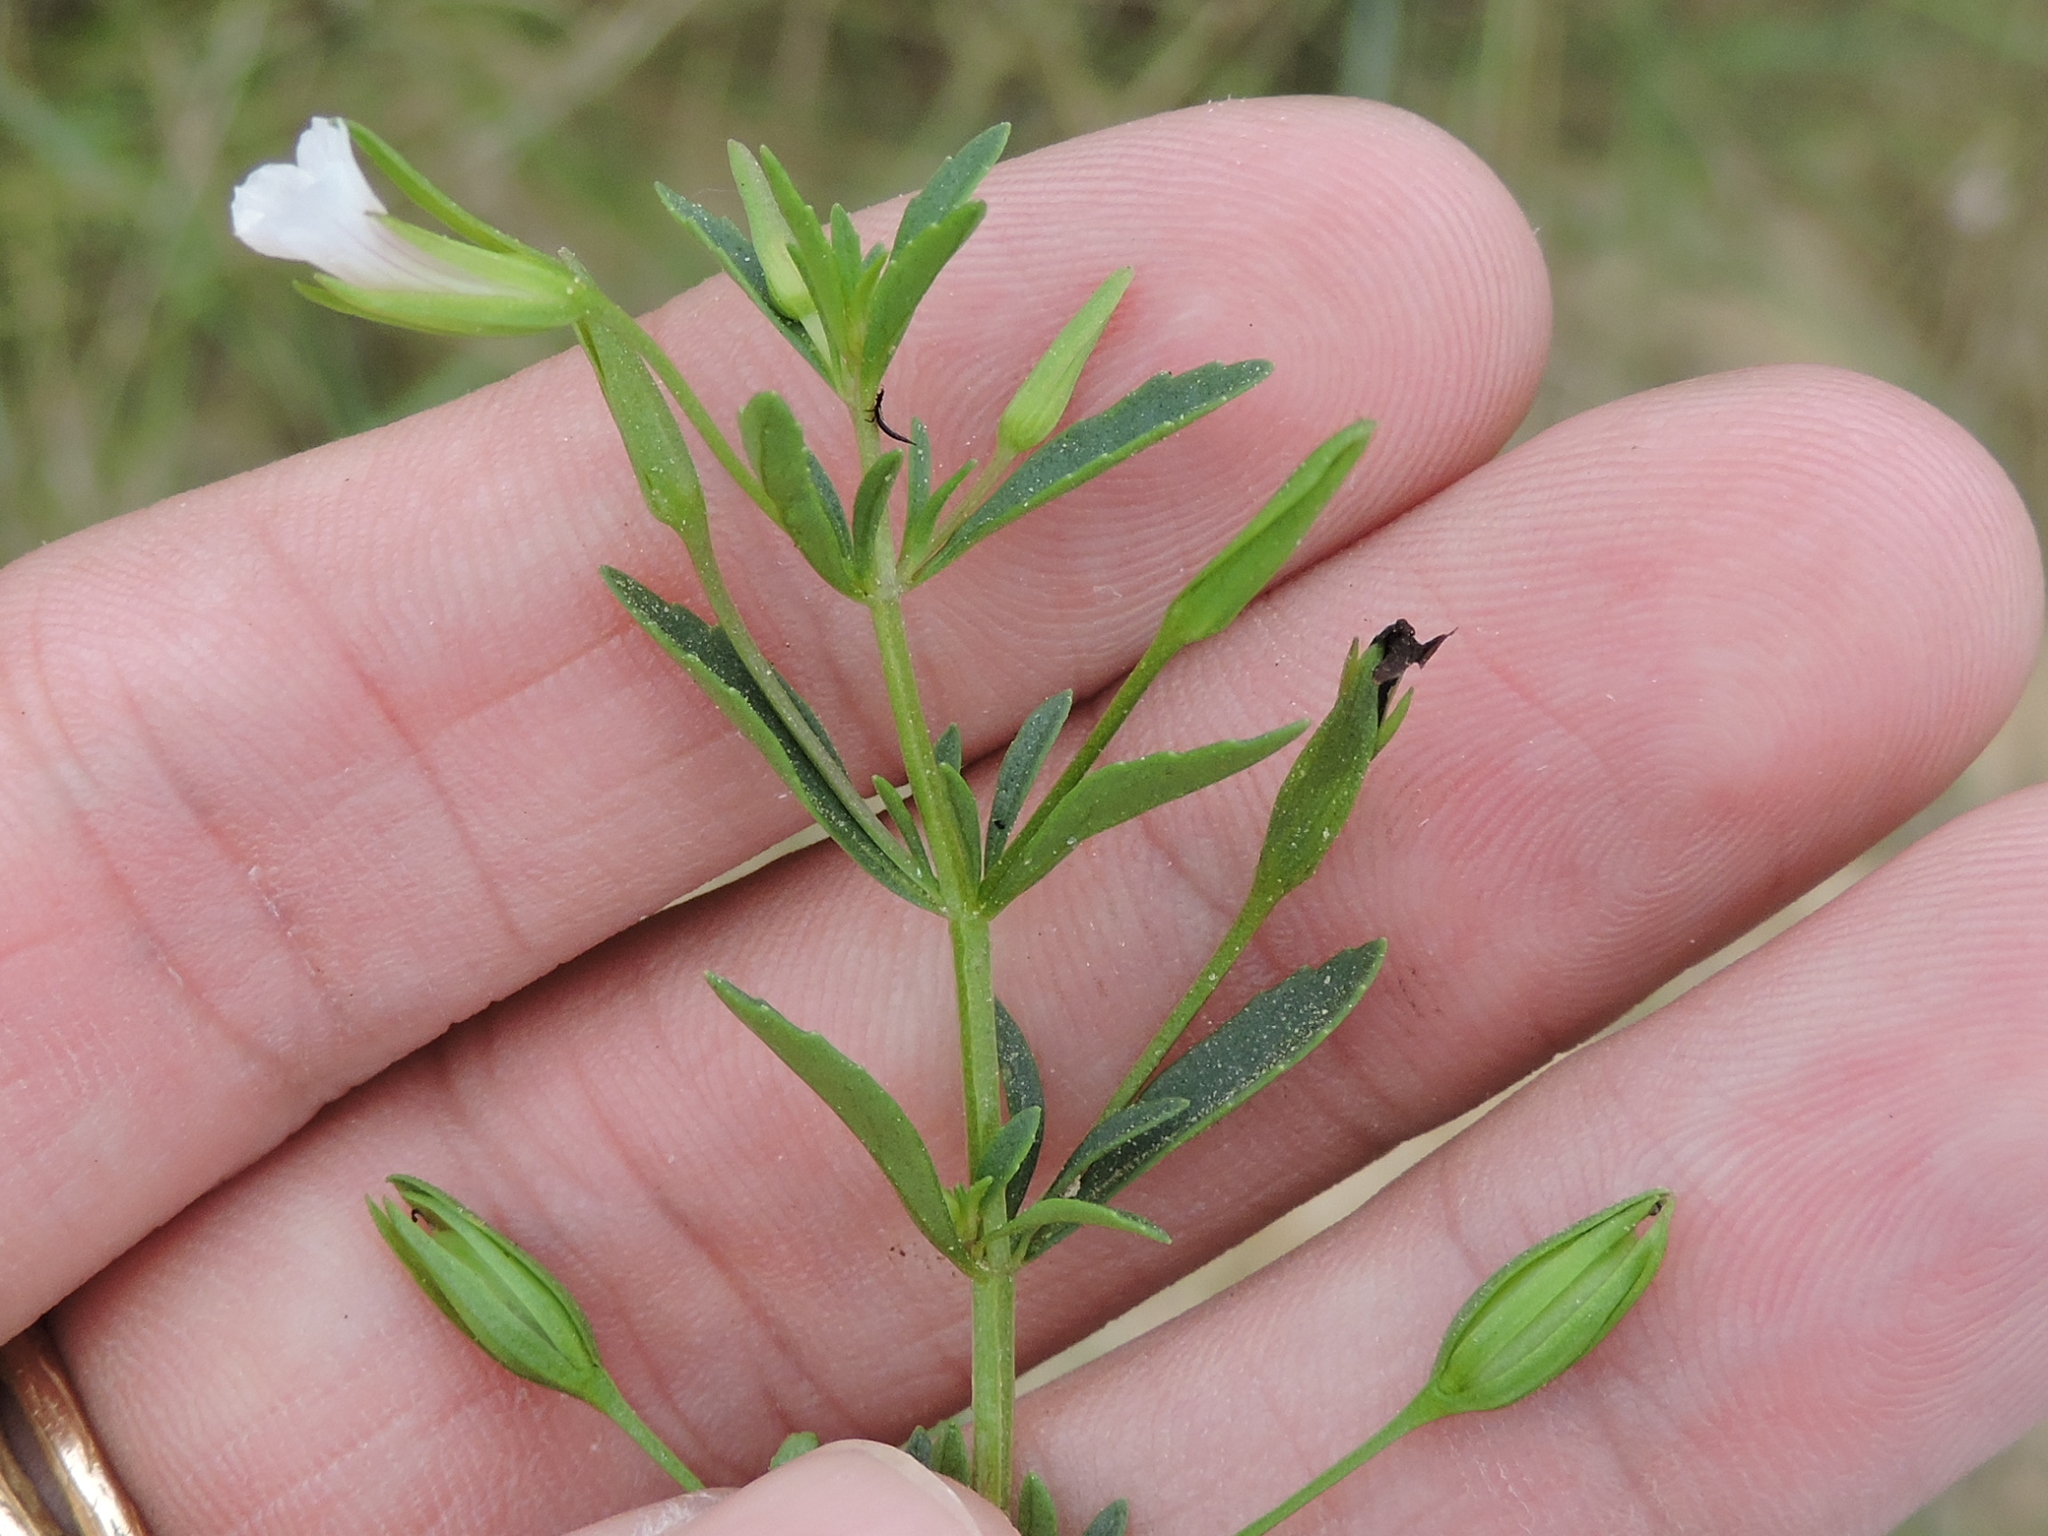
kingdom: Plantae
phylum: Tracheophyta
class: Magnoliopsida
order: Lamiales
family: Plantaginaceae
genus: Mecardonia
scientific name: Mecardonia acuminata
